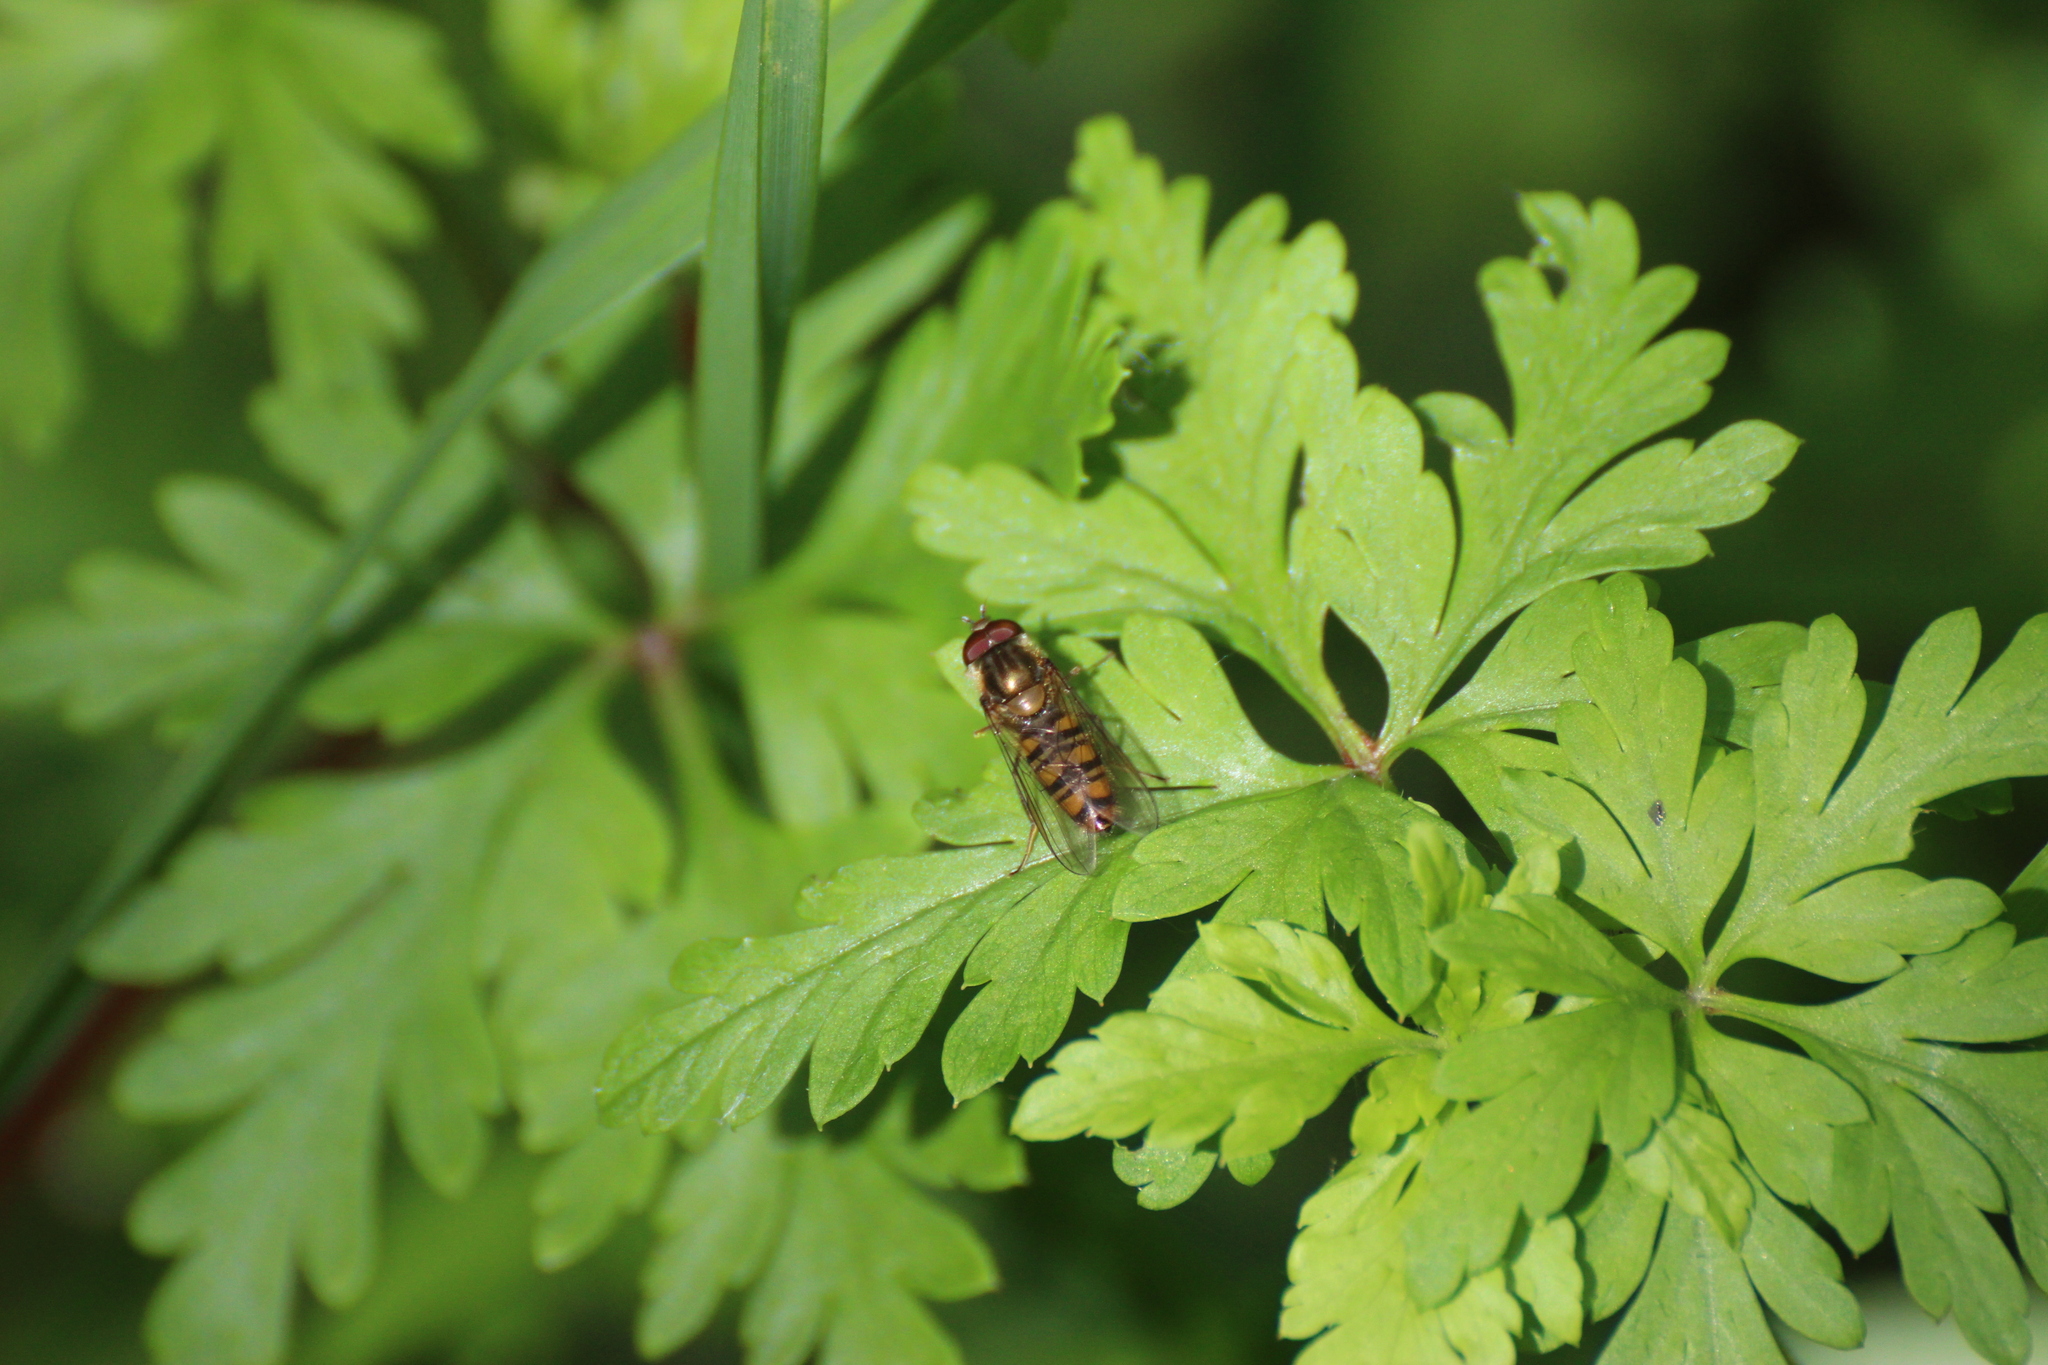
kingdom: Animalia
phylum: Arthropoda
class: Insecta
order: Diptera
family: Syrphidae
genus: Episyrphus
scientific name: Episyrphus balteatus
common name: Marmalade hoverfly
